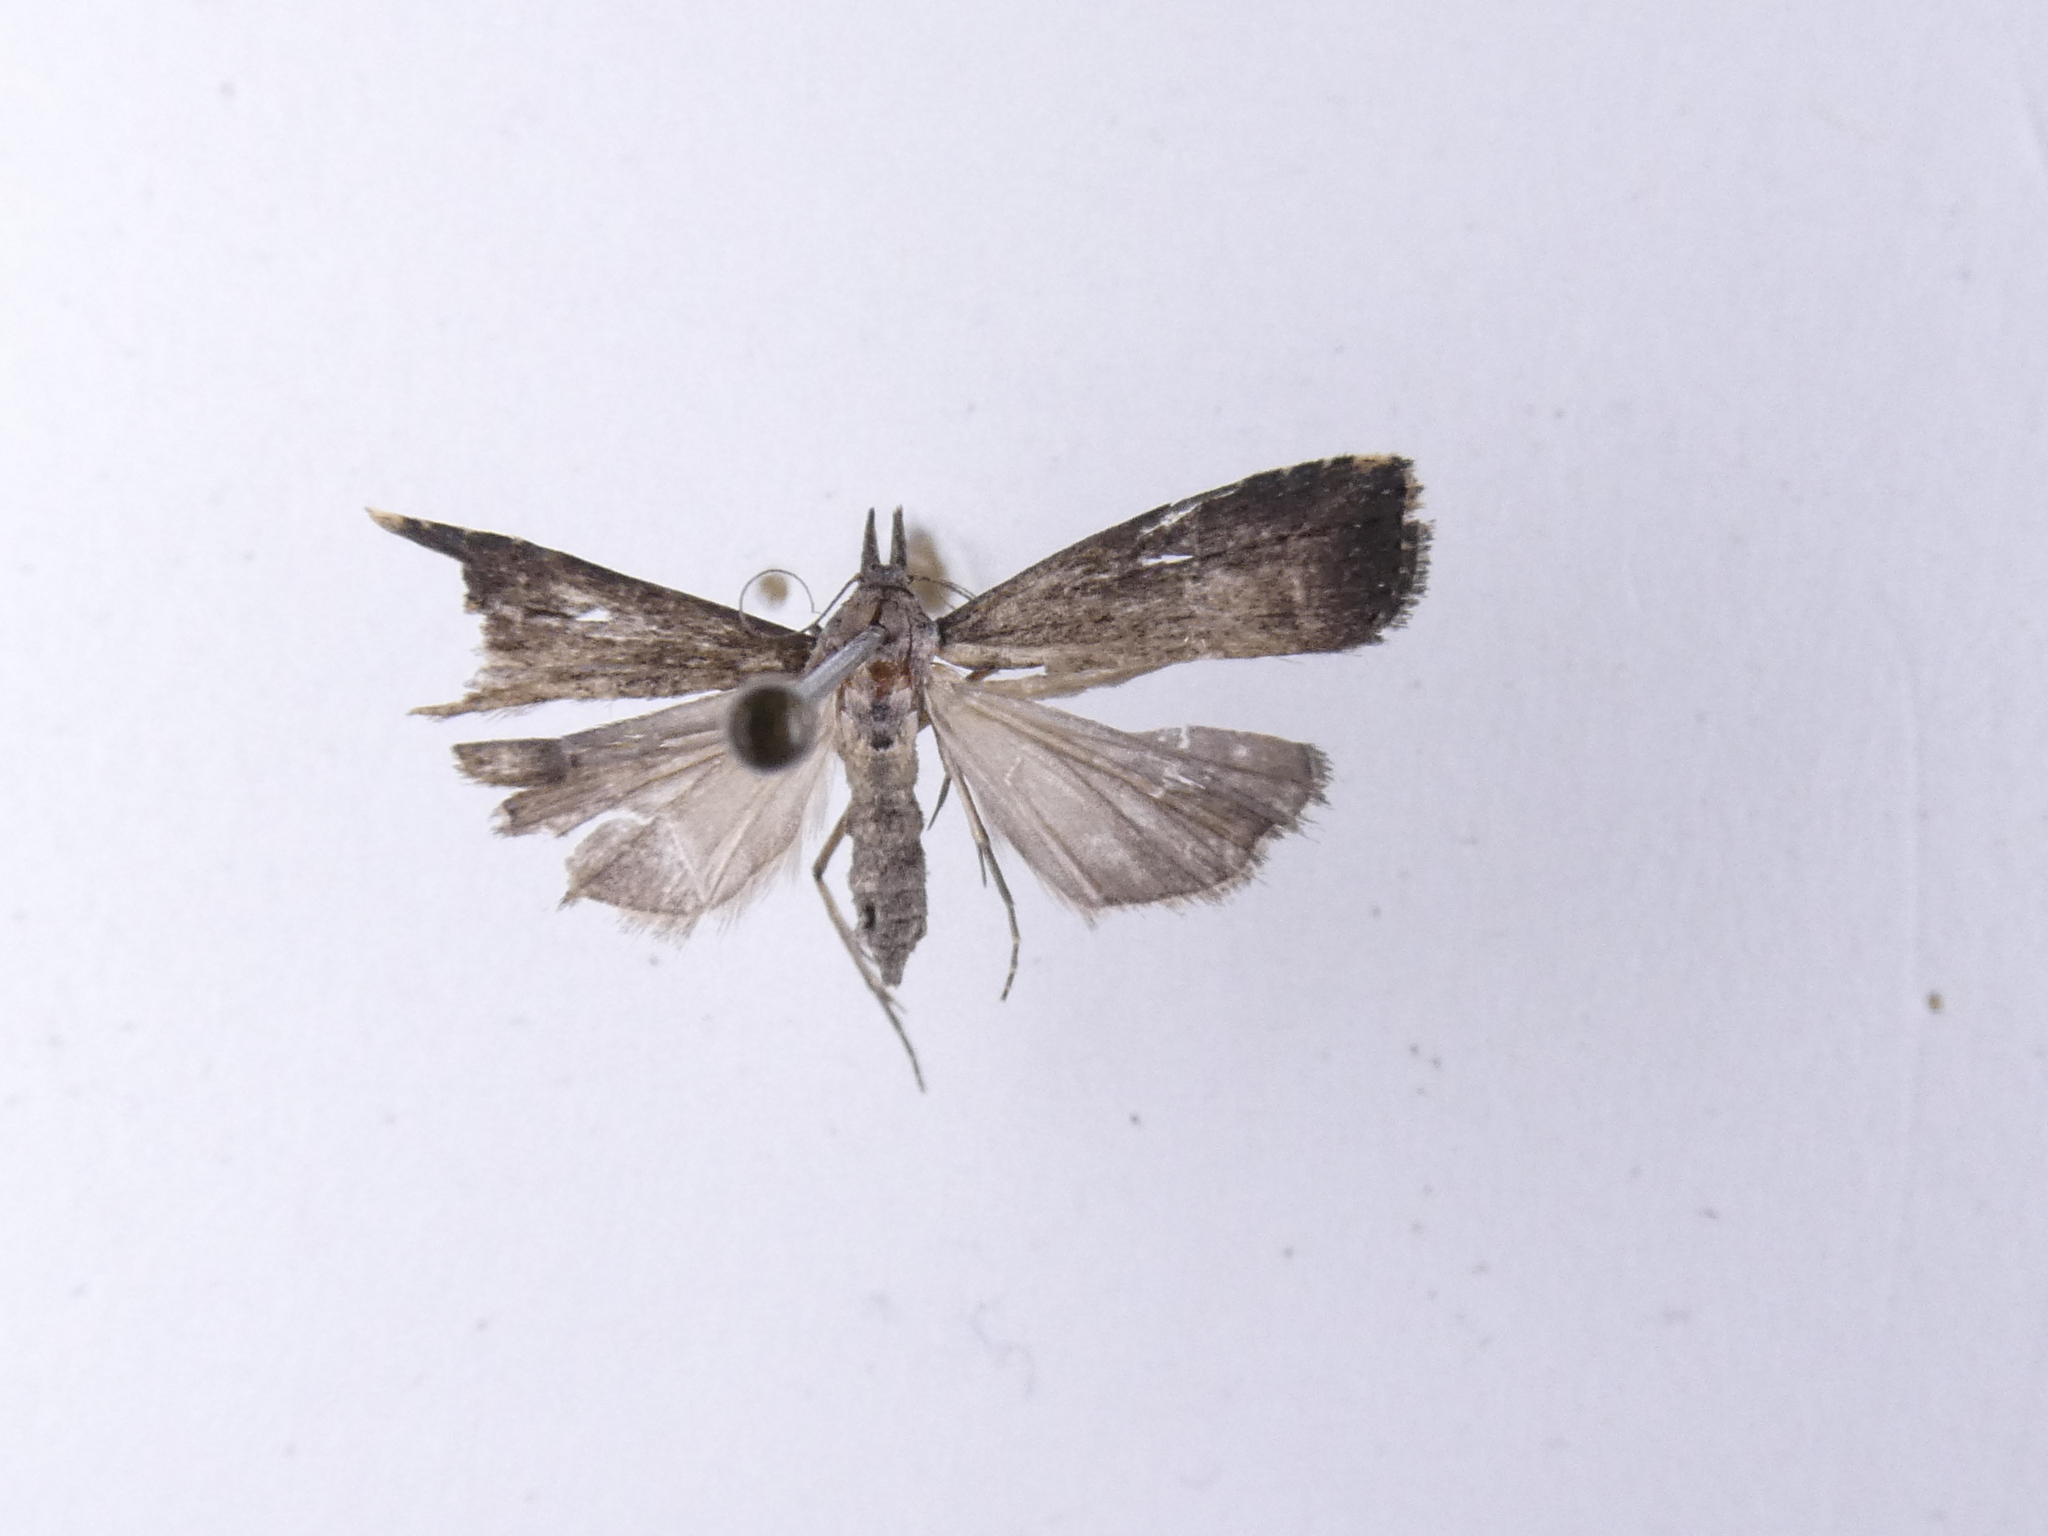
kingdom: Animalia
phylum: Arthropoda
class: Insecta
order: Lepidoptera
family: Erebidae
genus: Schrankia
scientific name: Schrankia costaestrigalis
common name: Pinion-streaked snout
